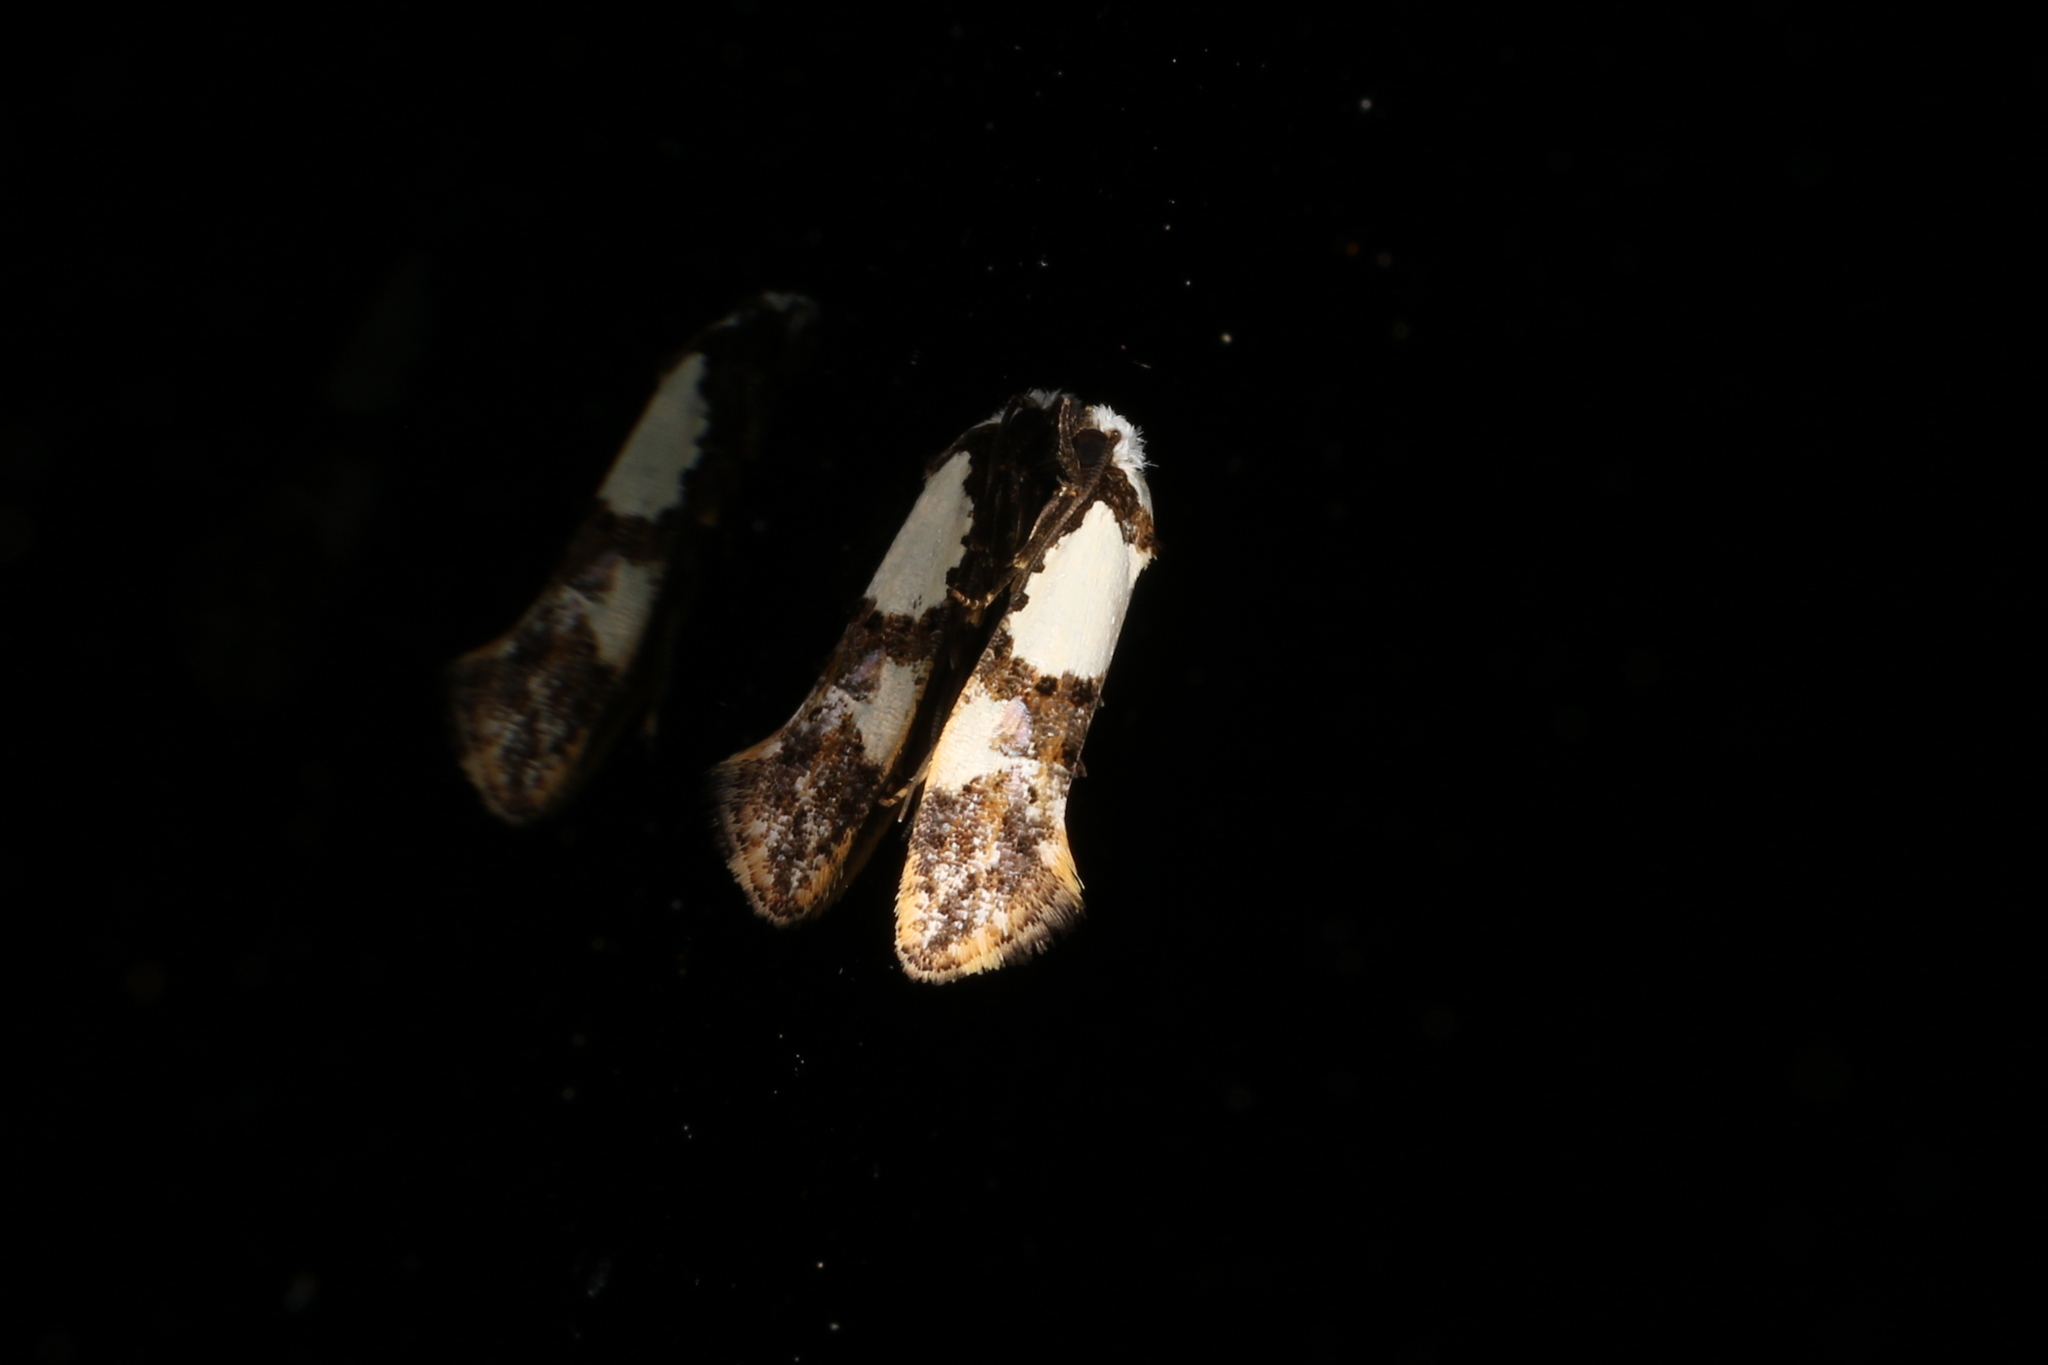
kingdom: Animalia
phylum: Arthropoda
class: Insecta
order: Lepidoptera
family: Tineidae
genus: Monopis
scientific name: Monopis meliorella
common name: Blotched monopis moth
